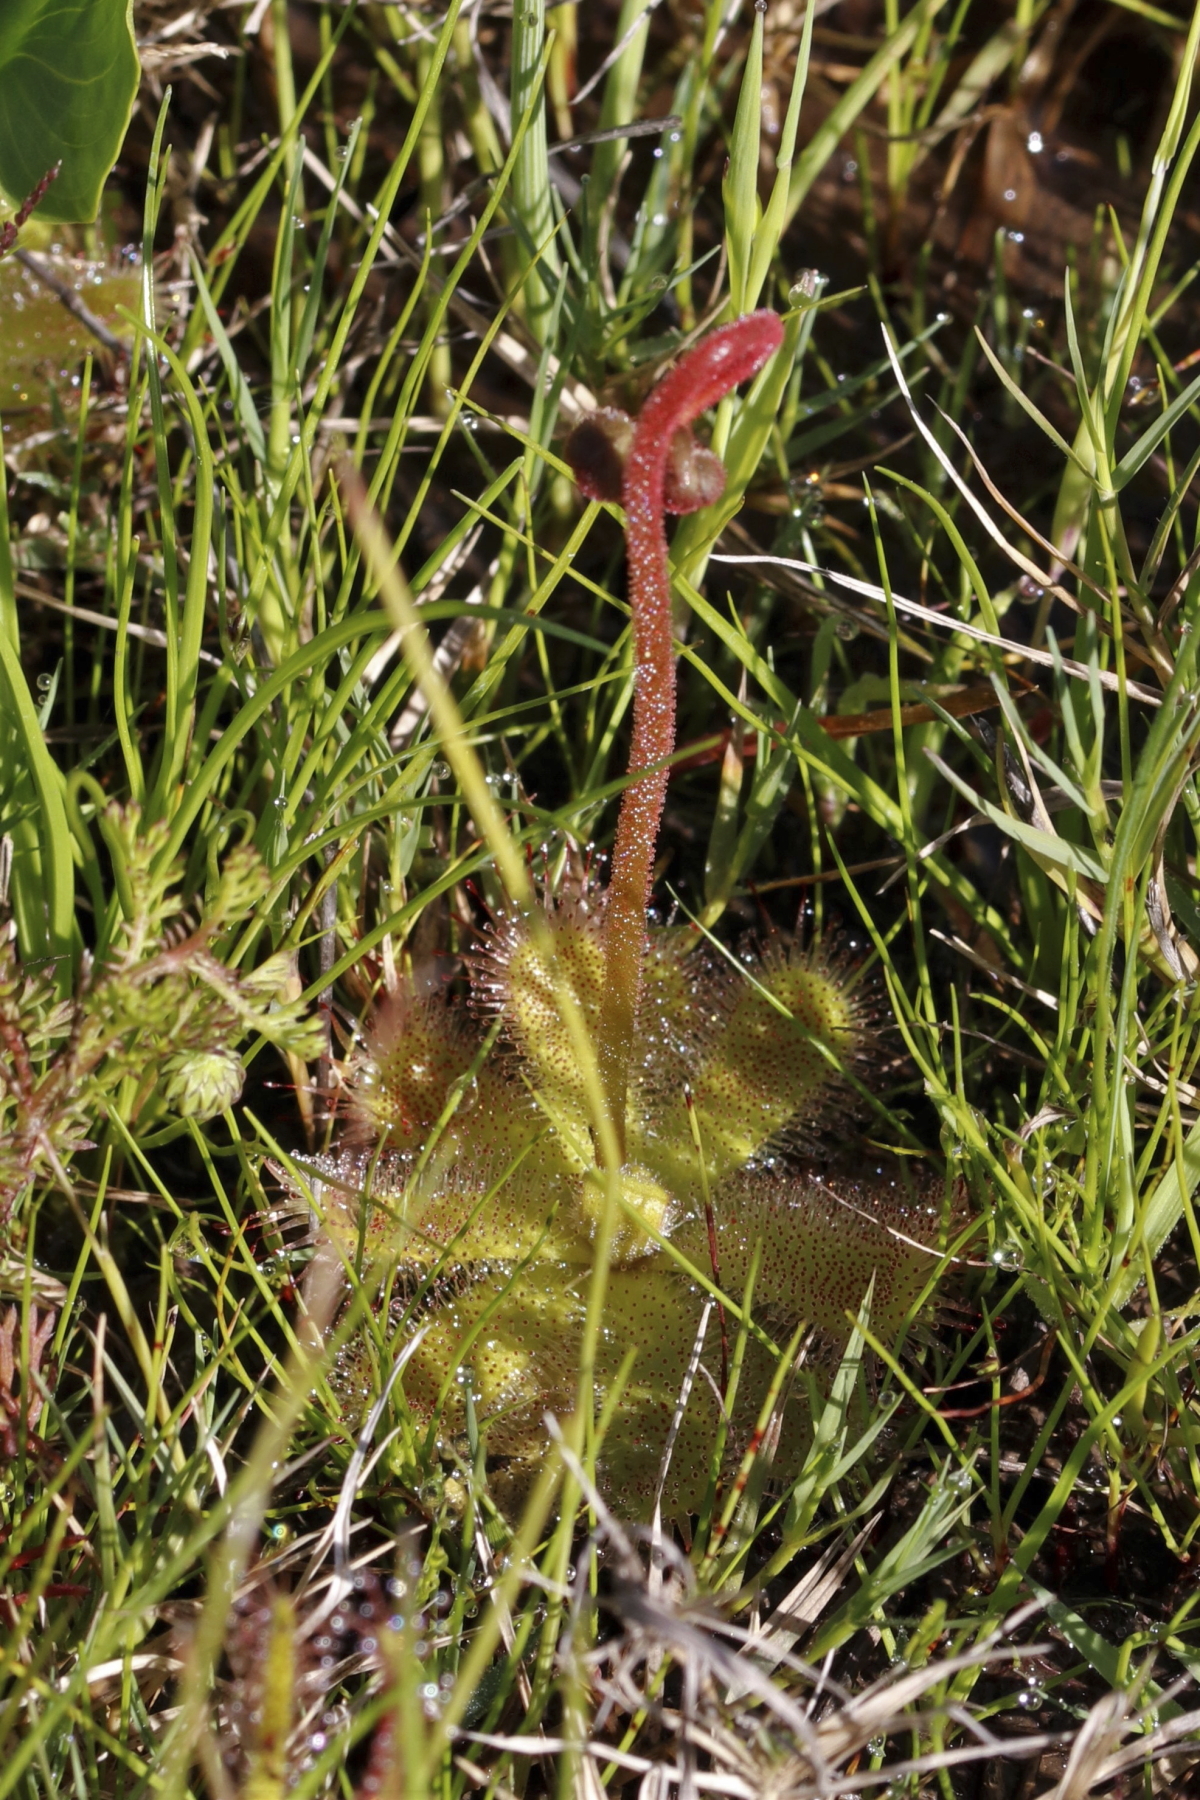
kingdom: Plantae
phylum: Tracheophyta
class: Magnoliopsida
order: Caryophyllales
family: Droseraceae
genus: Drosera
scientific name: Drosera pauciflora
